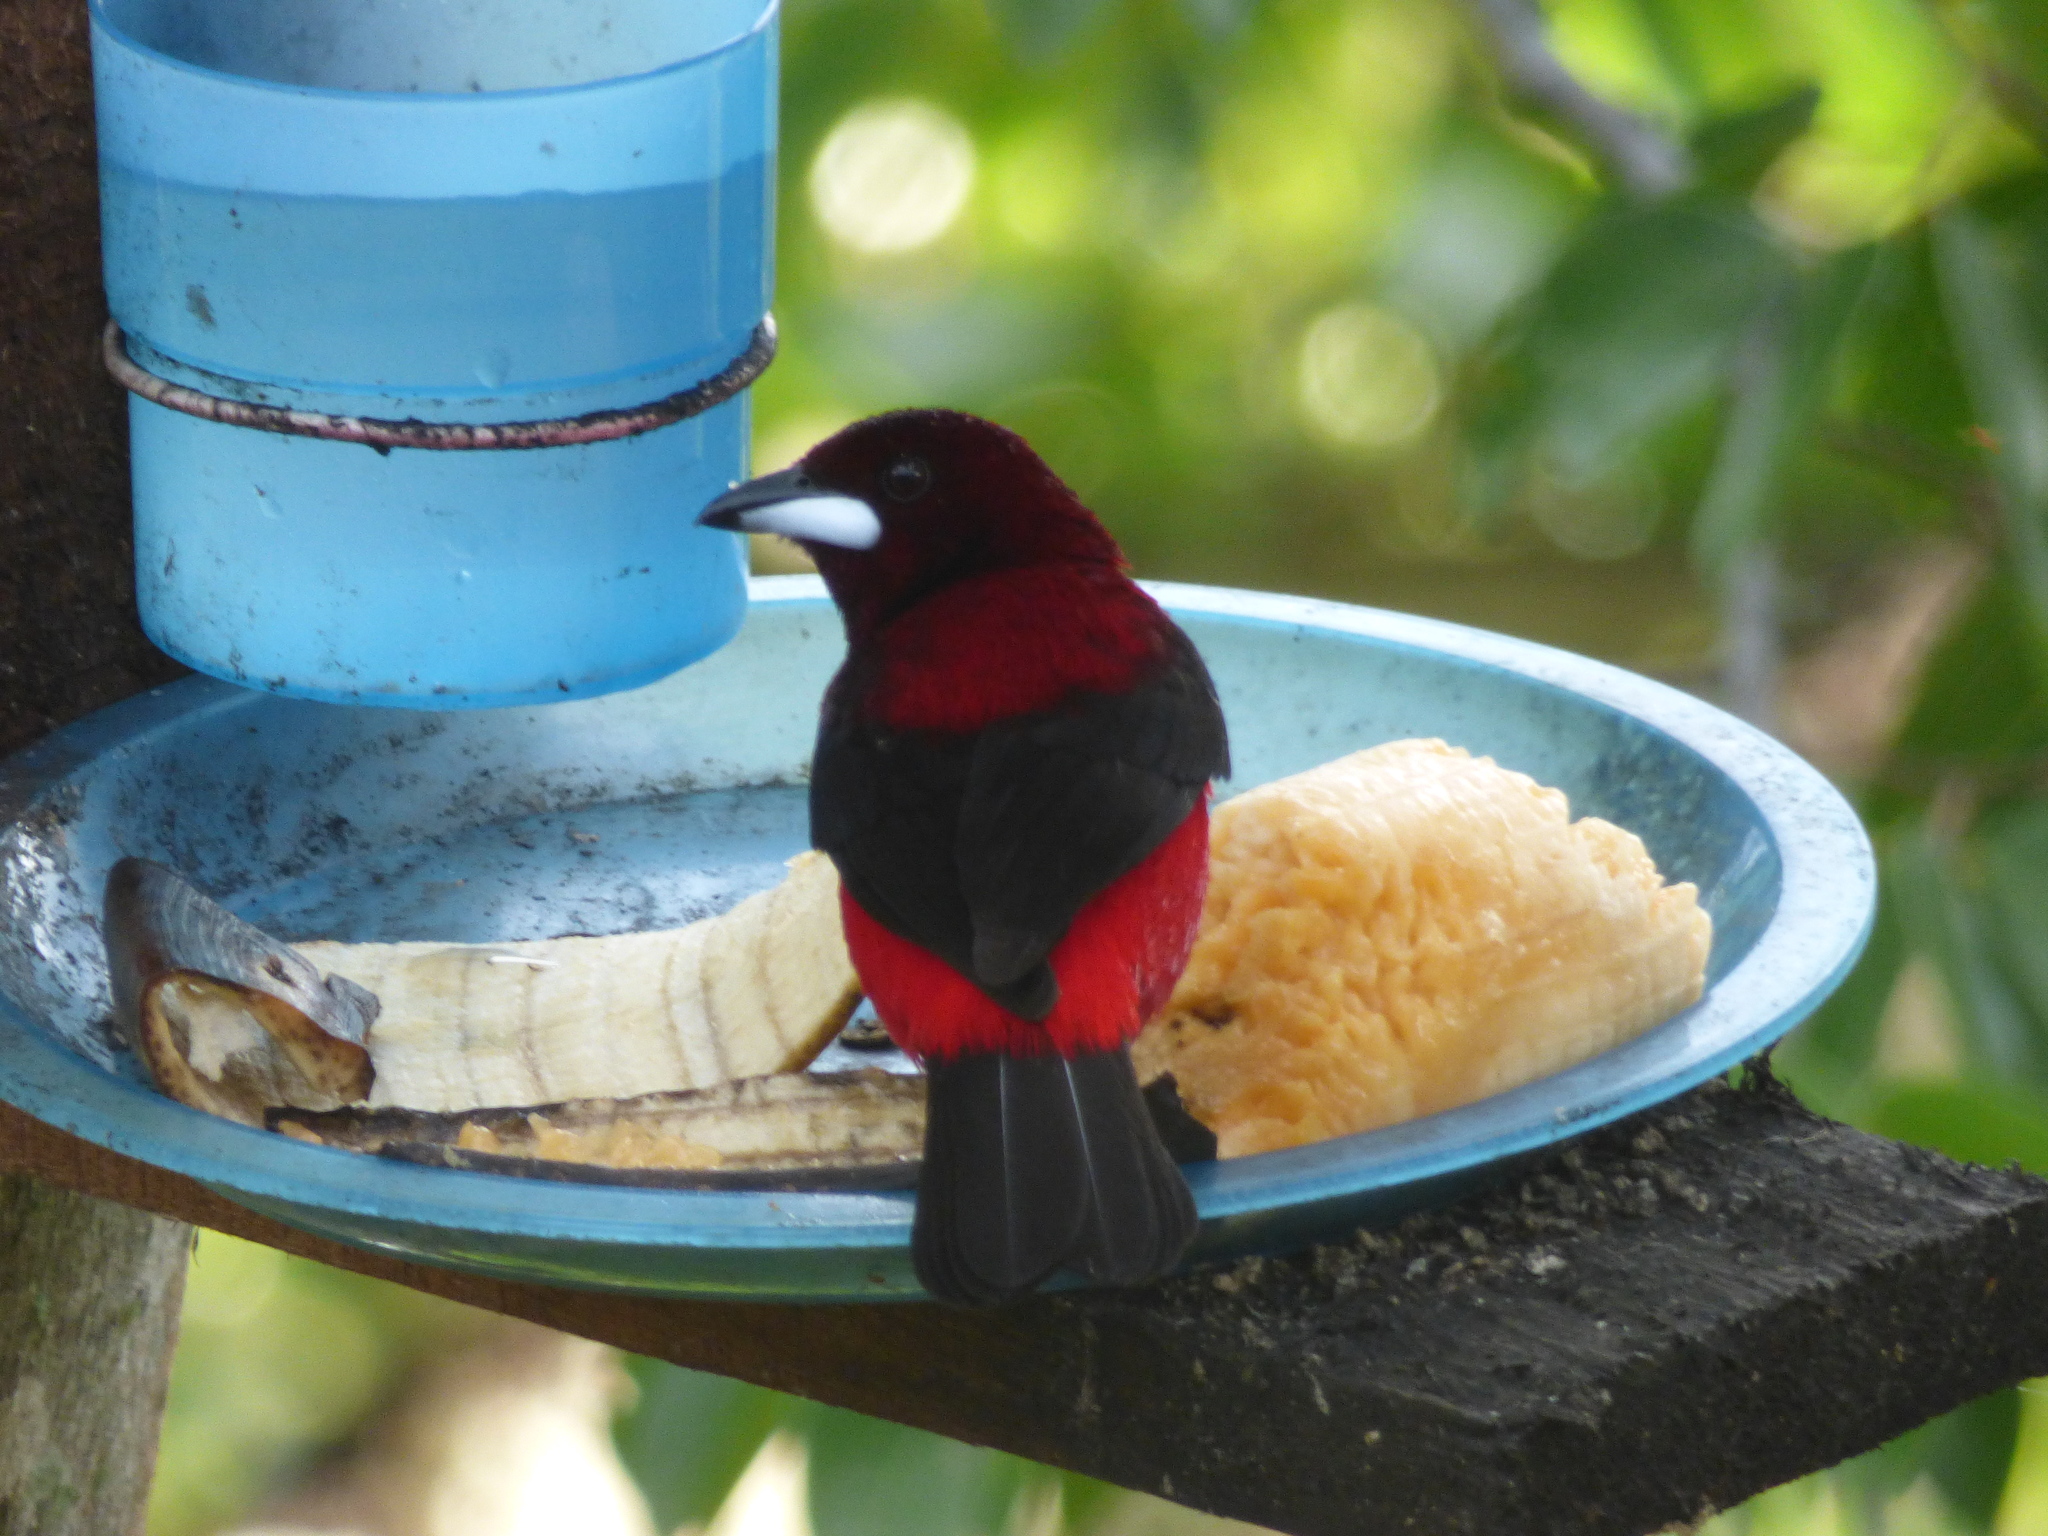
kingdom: Animalia
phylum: Chordata
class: Aves
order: Passeriformes
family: Thraupidae
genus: Ramphocelus
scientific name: Ramphocelus dimidiatus
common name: Crimson-backed tanager
